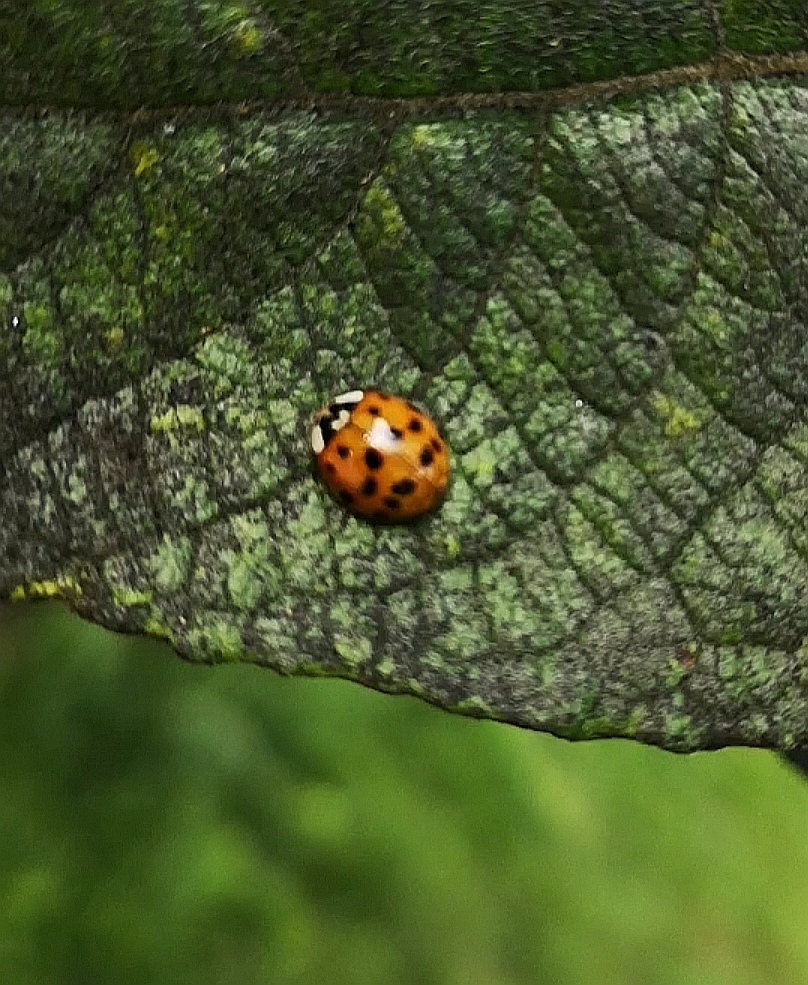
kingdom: Animalia
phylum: Arthropoda
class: Insecta
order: Coleoptera
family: Coccinellidae
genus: Harmonia
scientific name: Harmonia axyridis
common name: Harlequin ladybird
